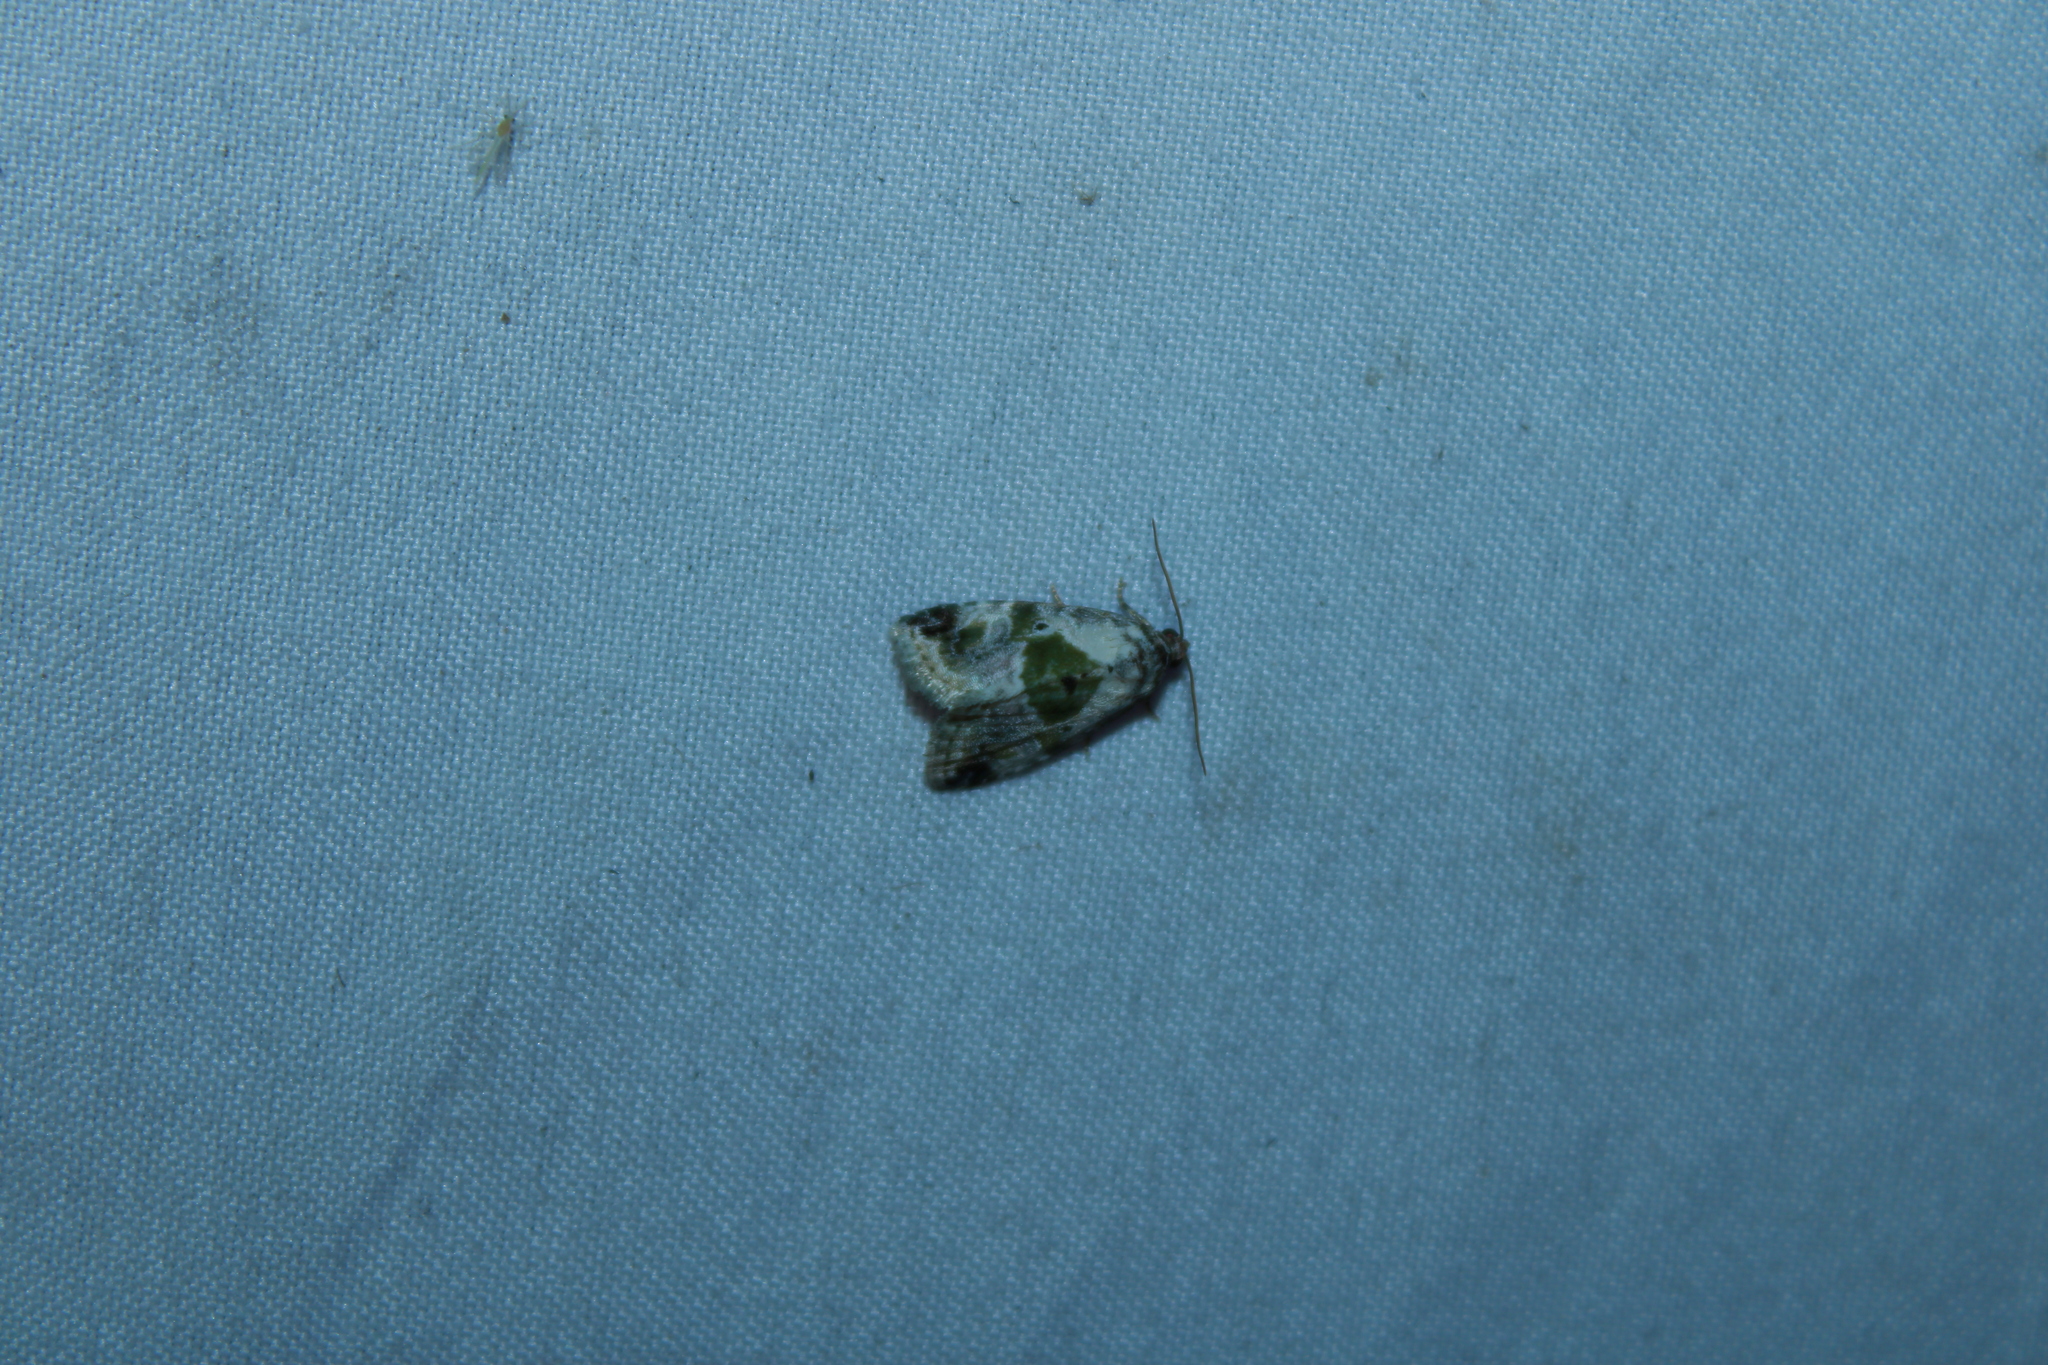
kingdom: Animalia
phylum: Arthropoda
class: Insecta
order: Lepidoptera
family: Noctuidae
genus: Maliattha
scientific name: Maliattha synochitis
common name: Black-dotted glyph
